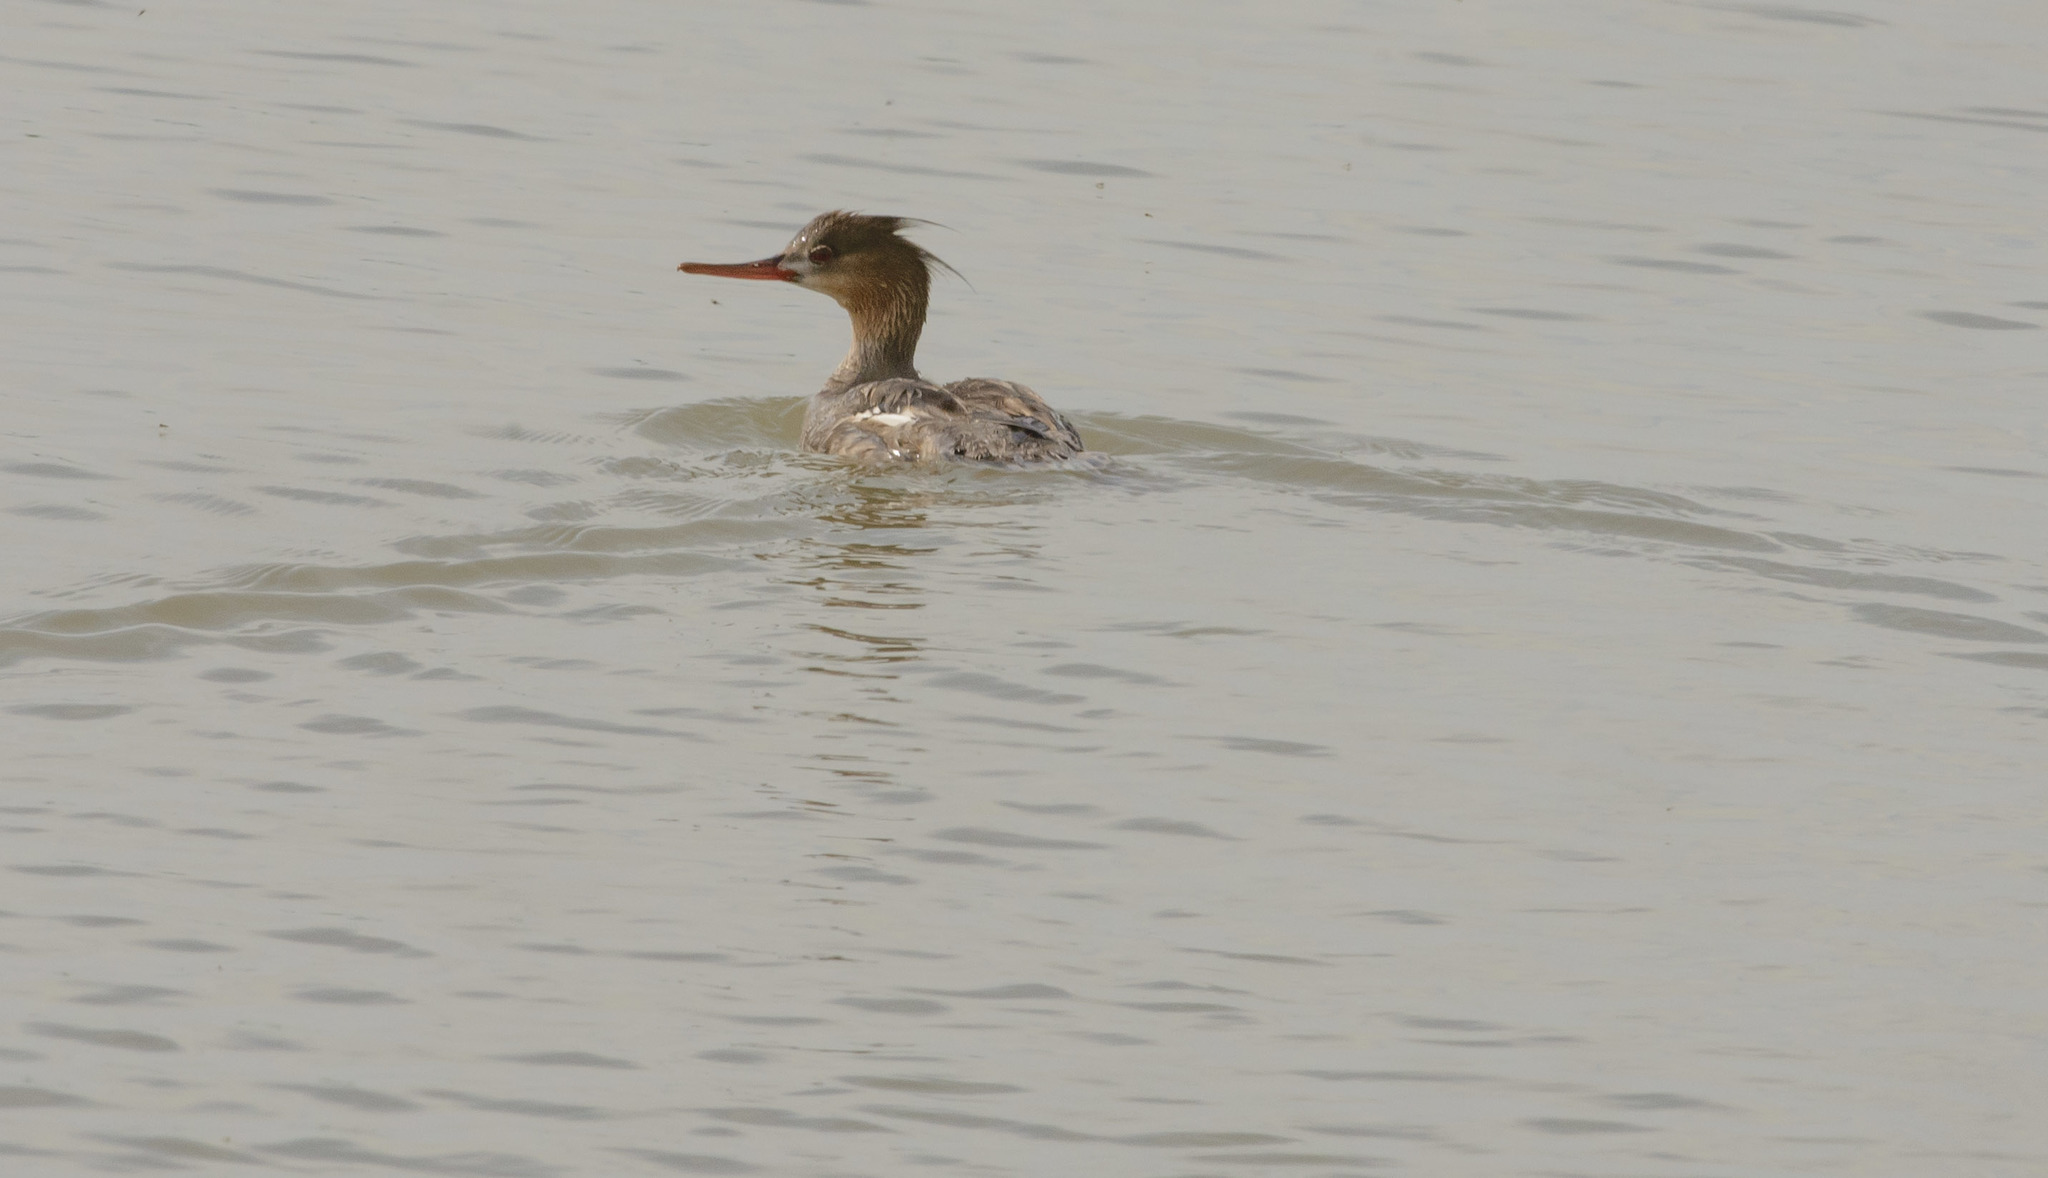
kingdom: Animalia
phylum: Chordata
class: Aves
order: Anseriformes
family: Anatidae
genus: Mergus
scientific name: Mergus serrator
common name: Red-breasted merganser
